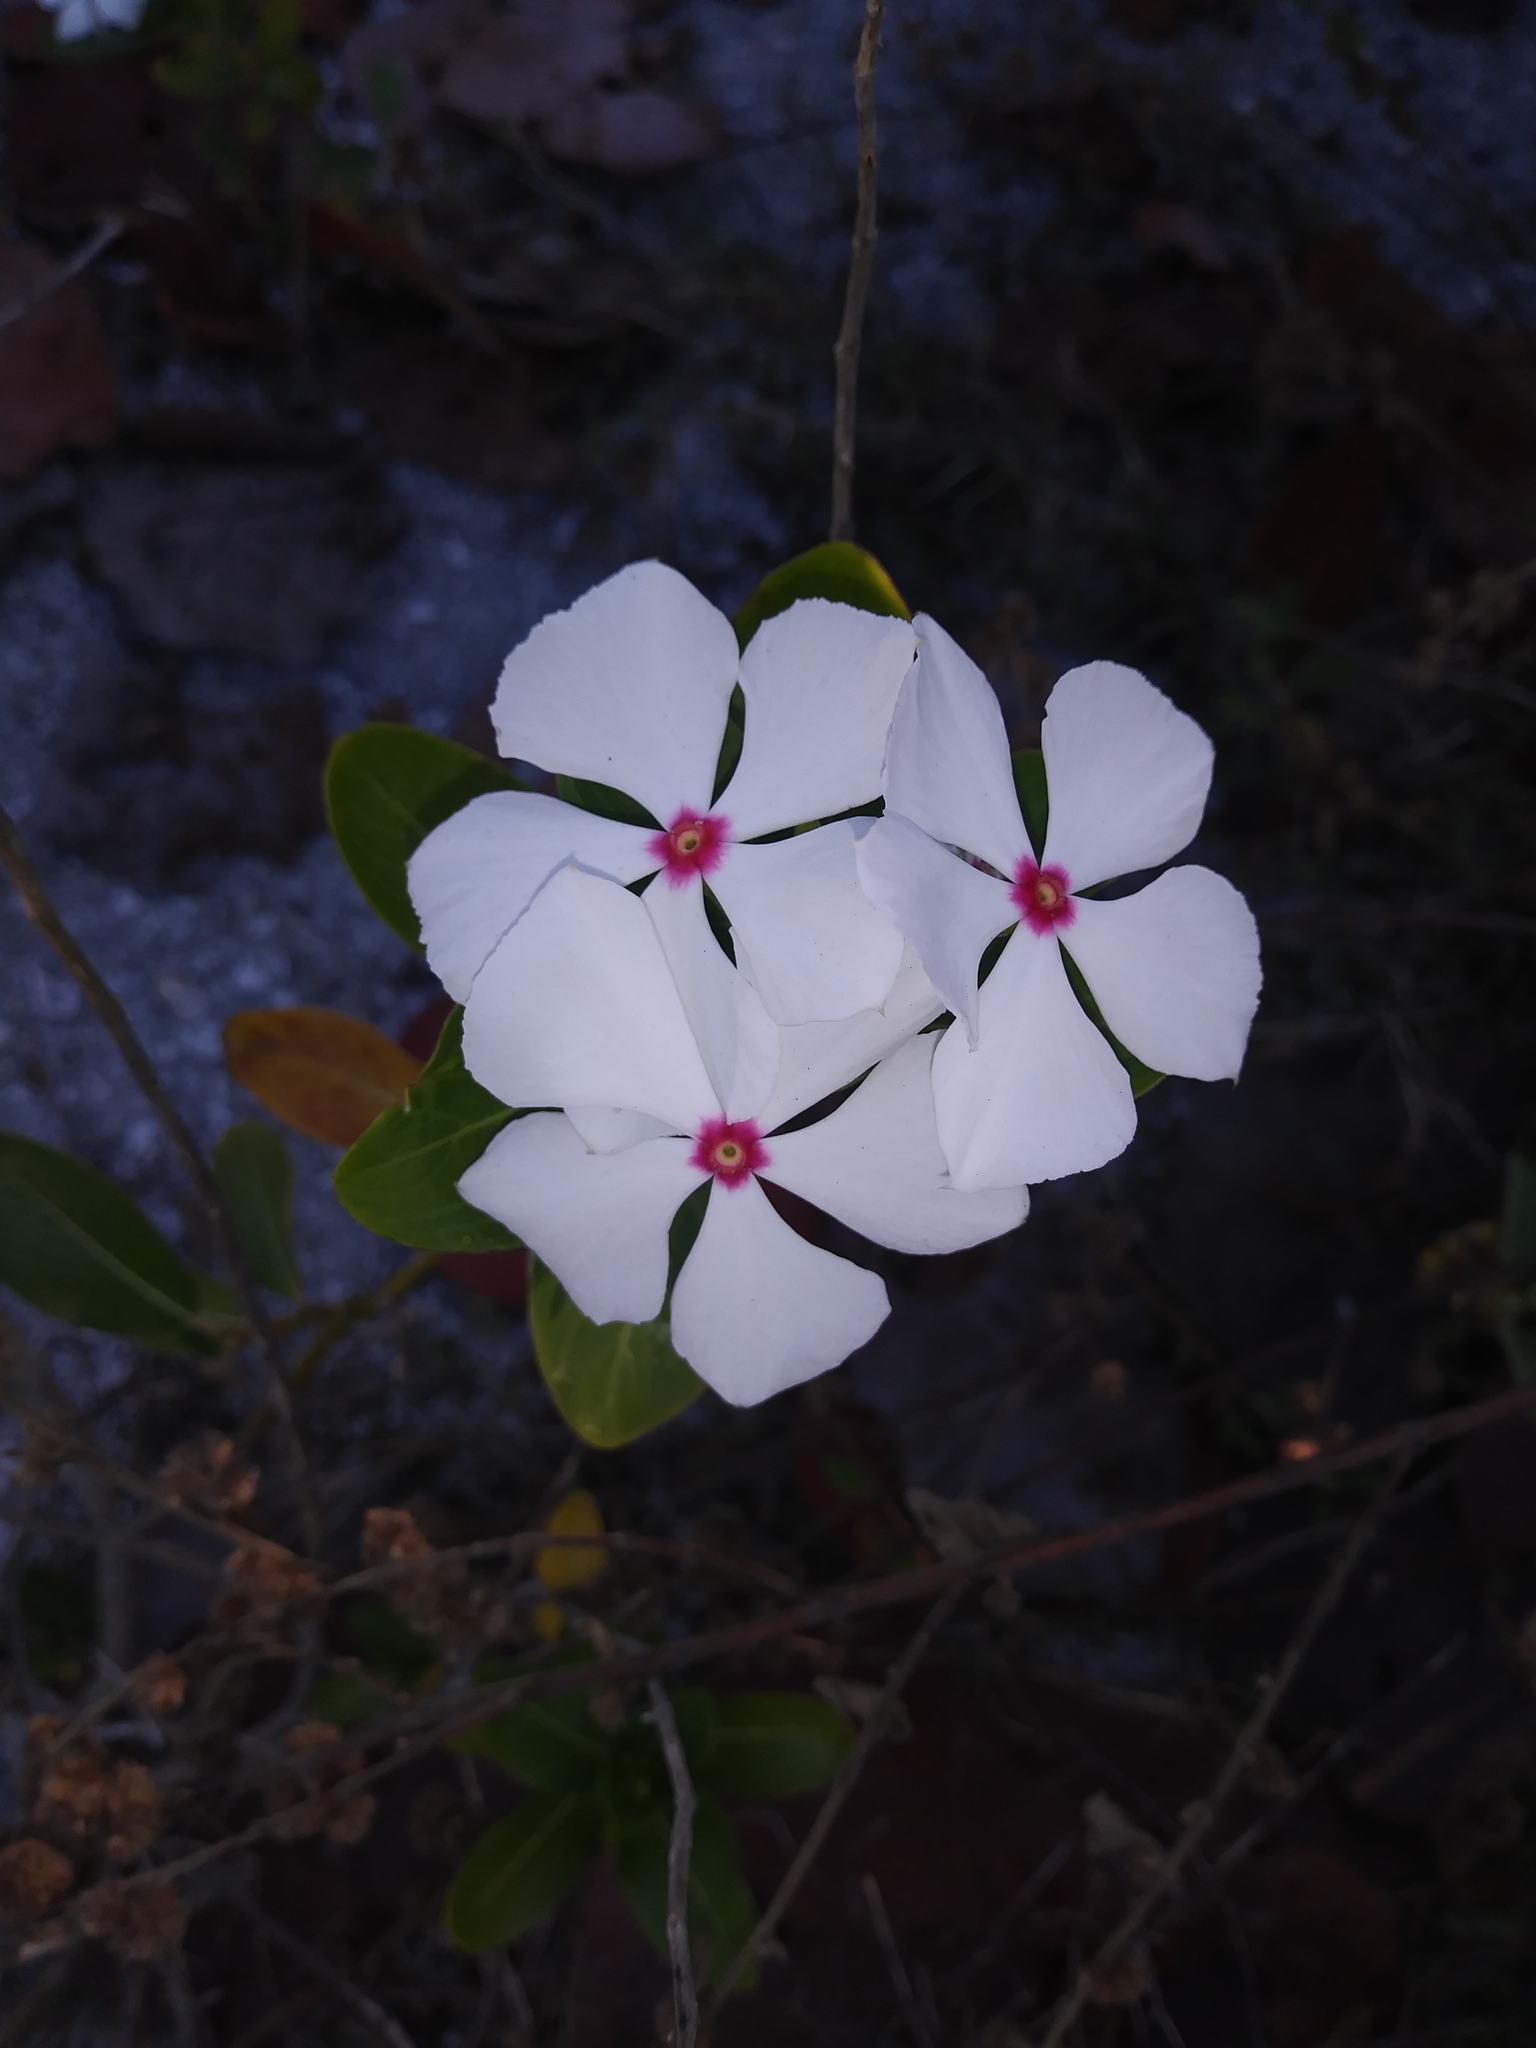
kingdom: Plantae
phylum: Tracheophyta
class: Magnoliopsida
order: Gentianales
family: Apocynaceae
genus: Catharanthus
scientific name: Catharanthus roseus
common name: Madagascar periwinkle
